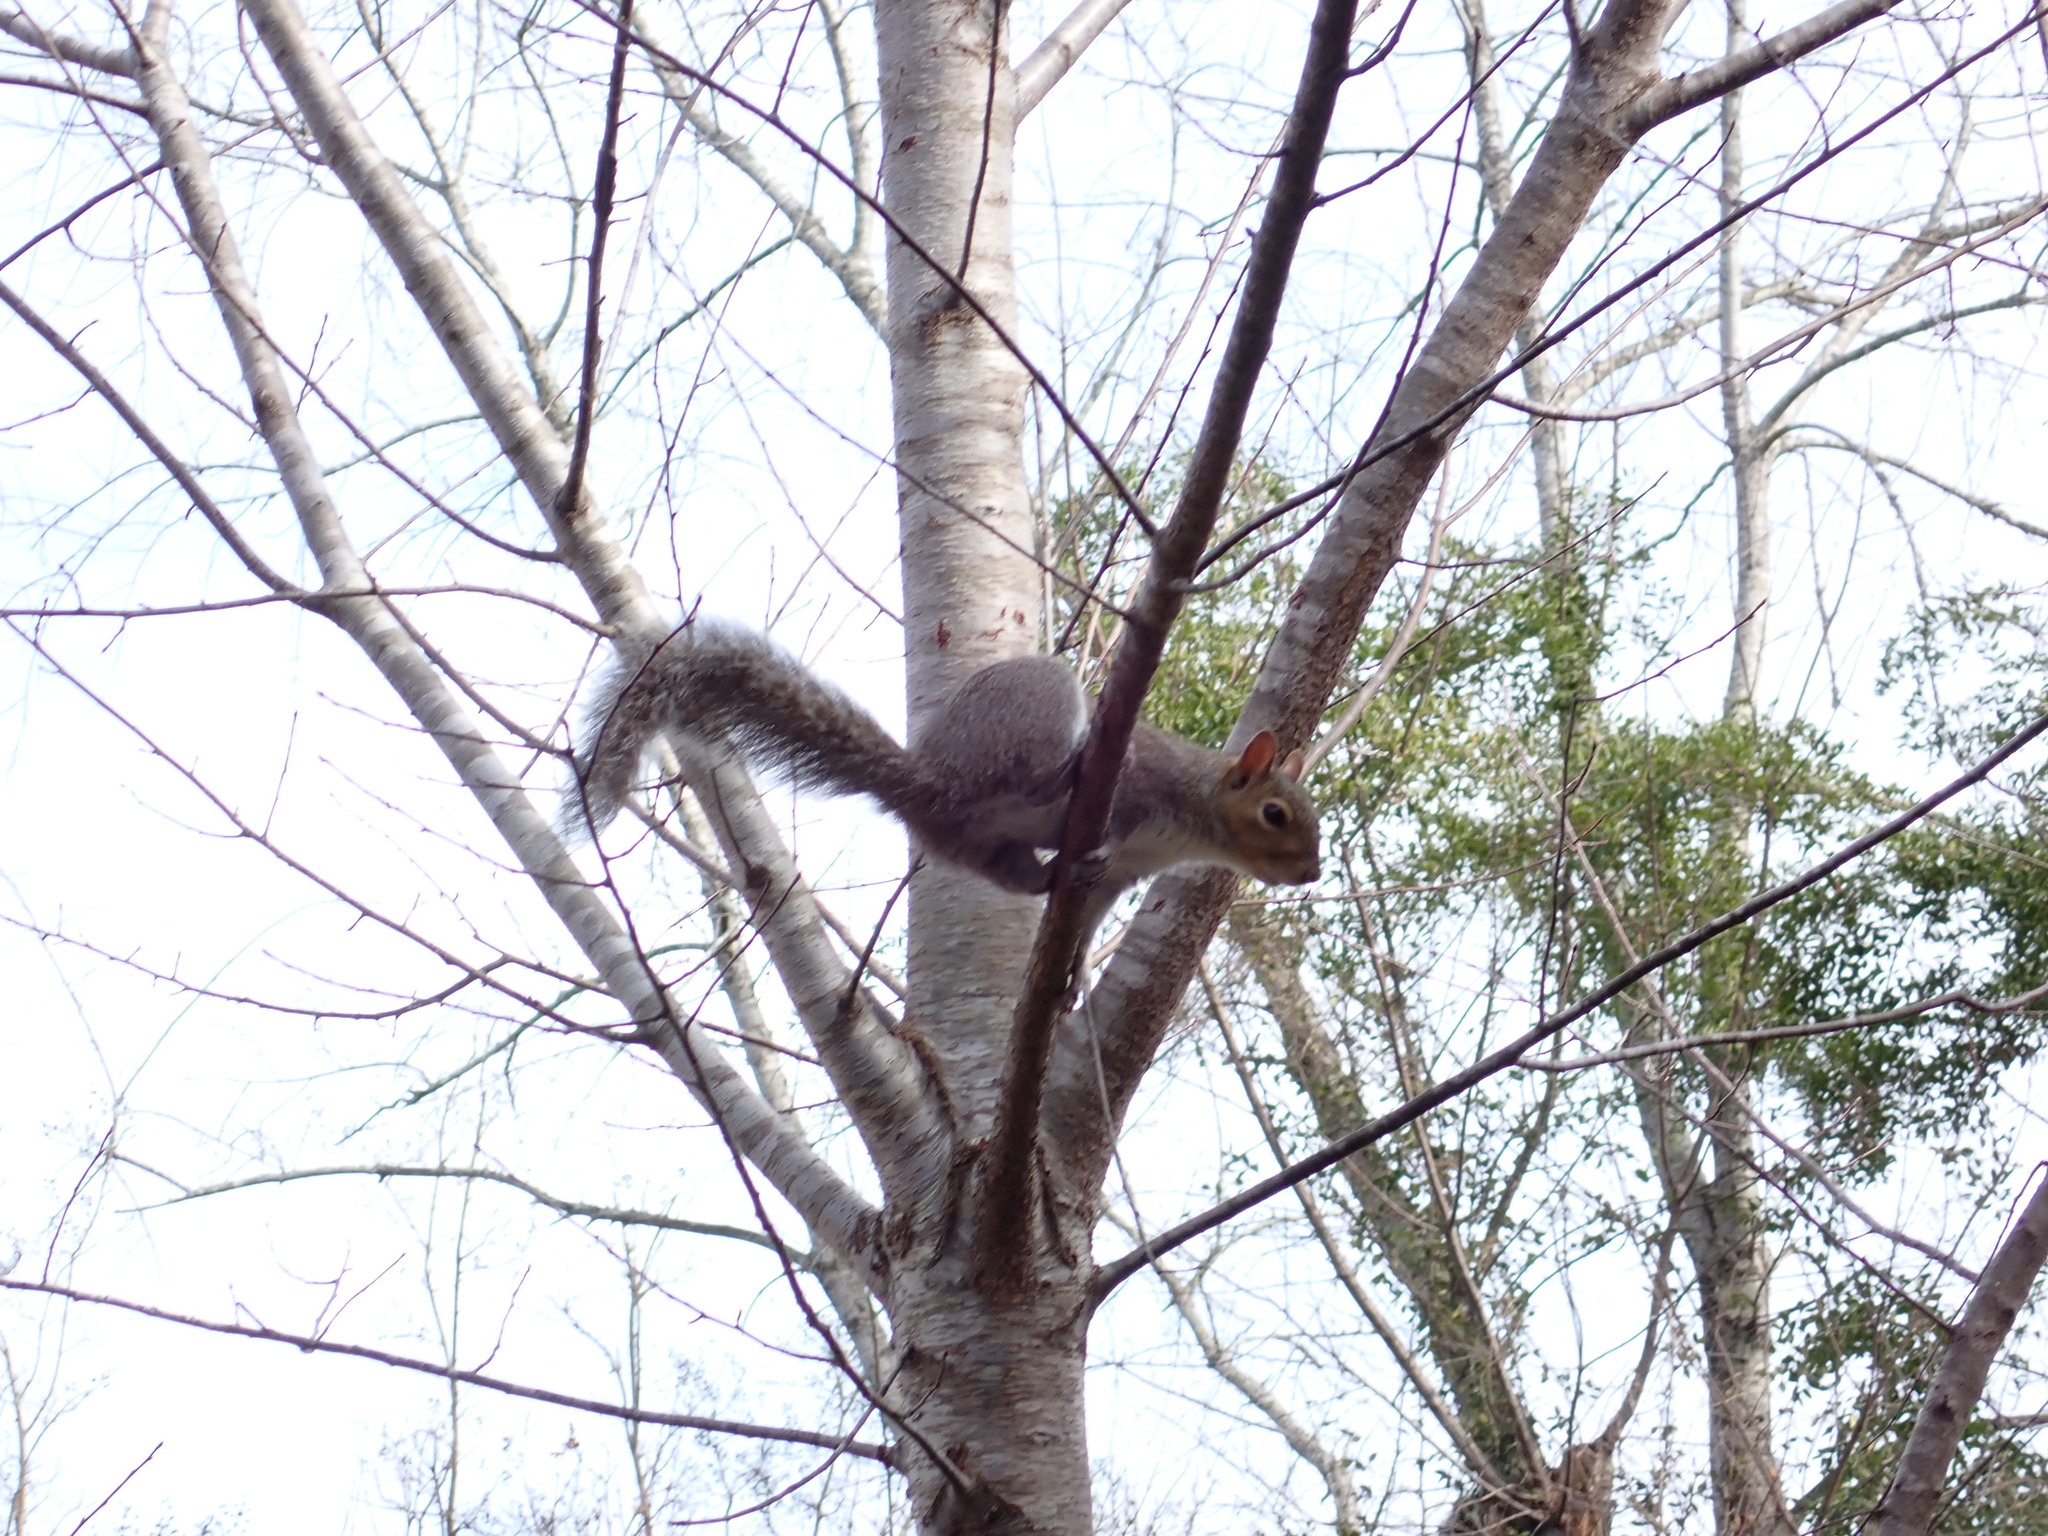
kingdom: Animalia
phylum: Chordata
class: Mammalia
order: Rodentia
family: Sciuridae
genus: Sciurus
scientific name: Sciurus carolinensis
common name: Eastern gray squirrel
